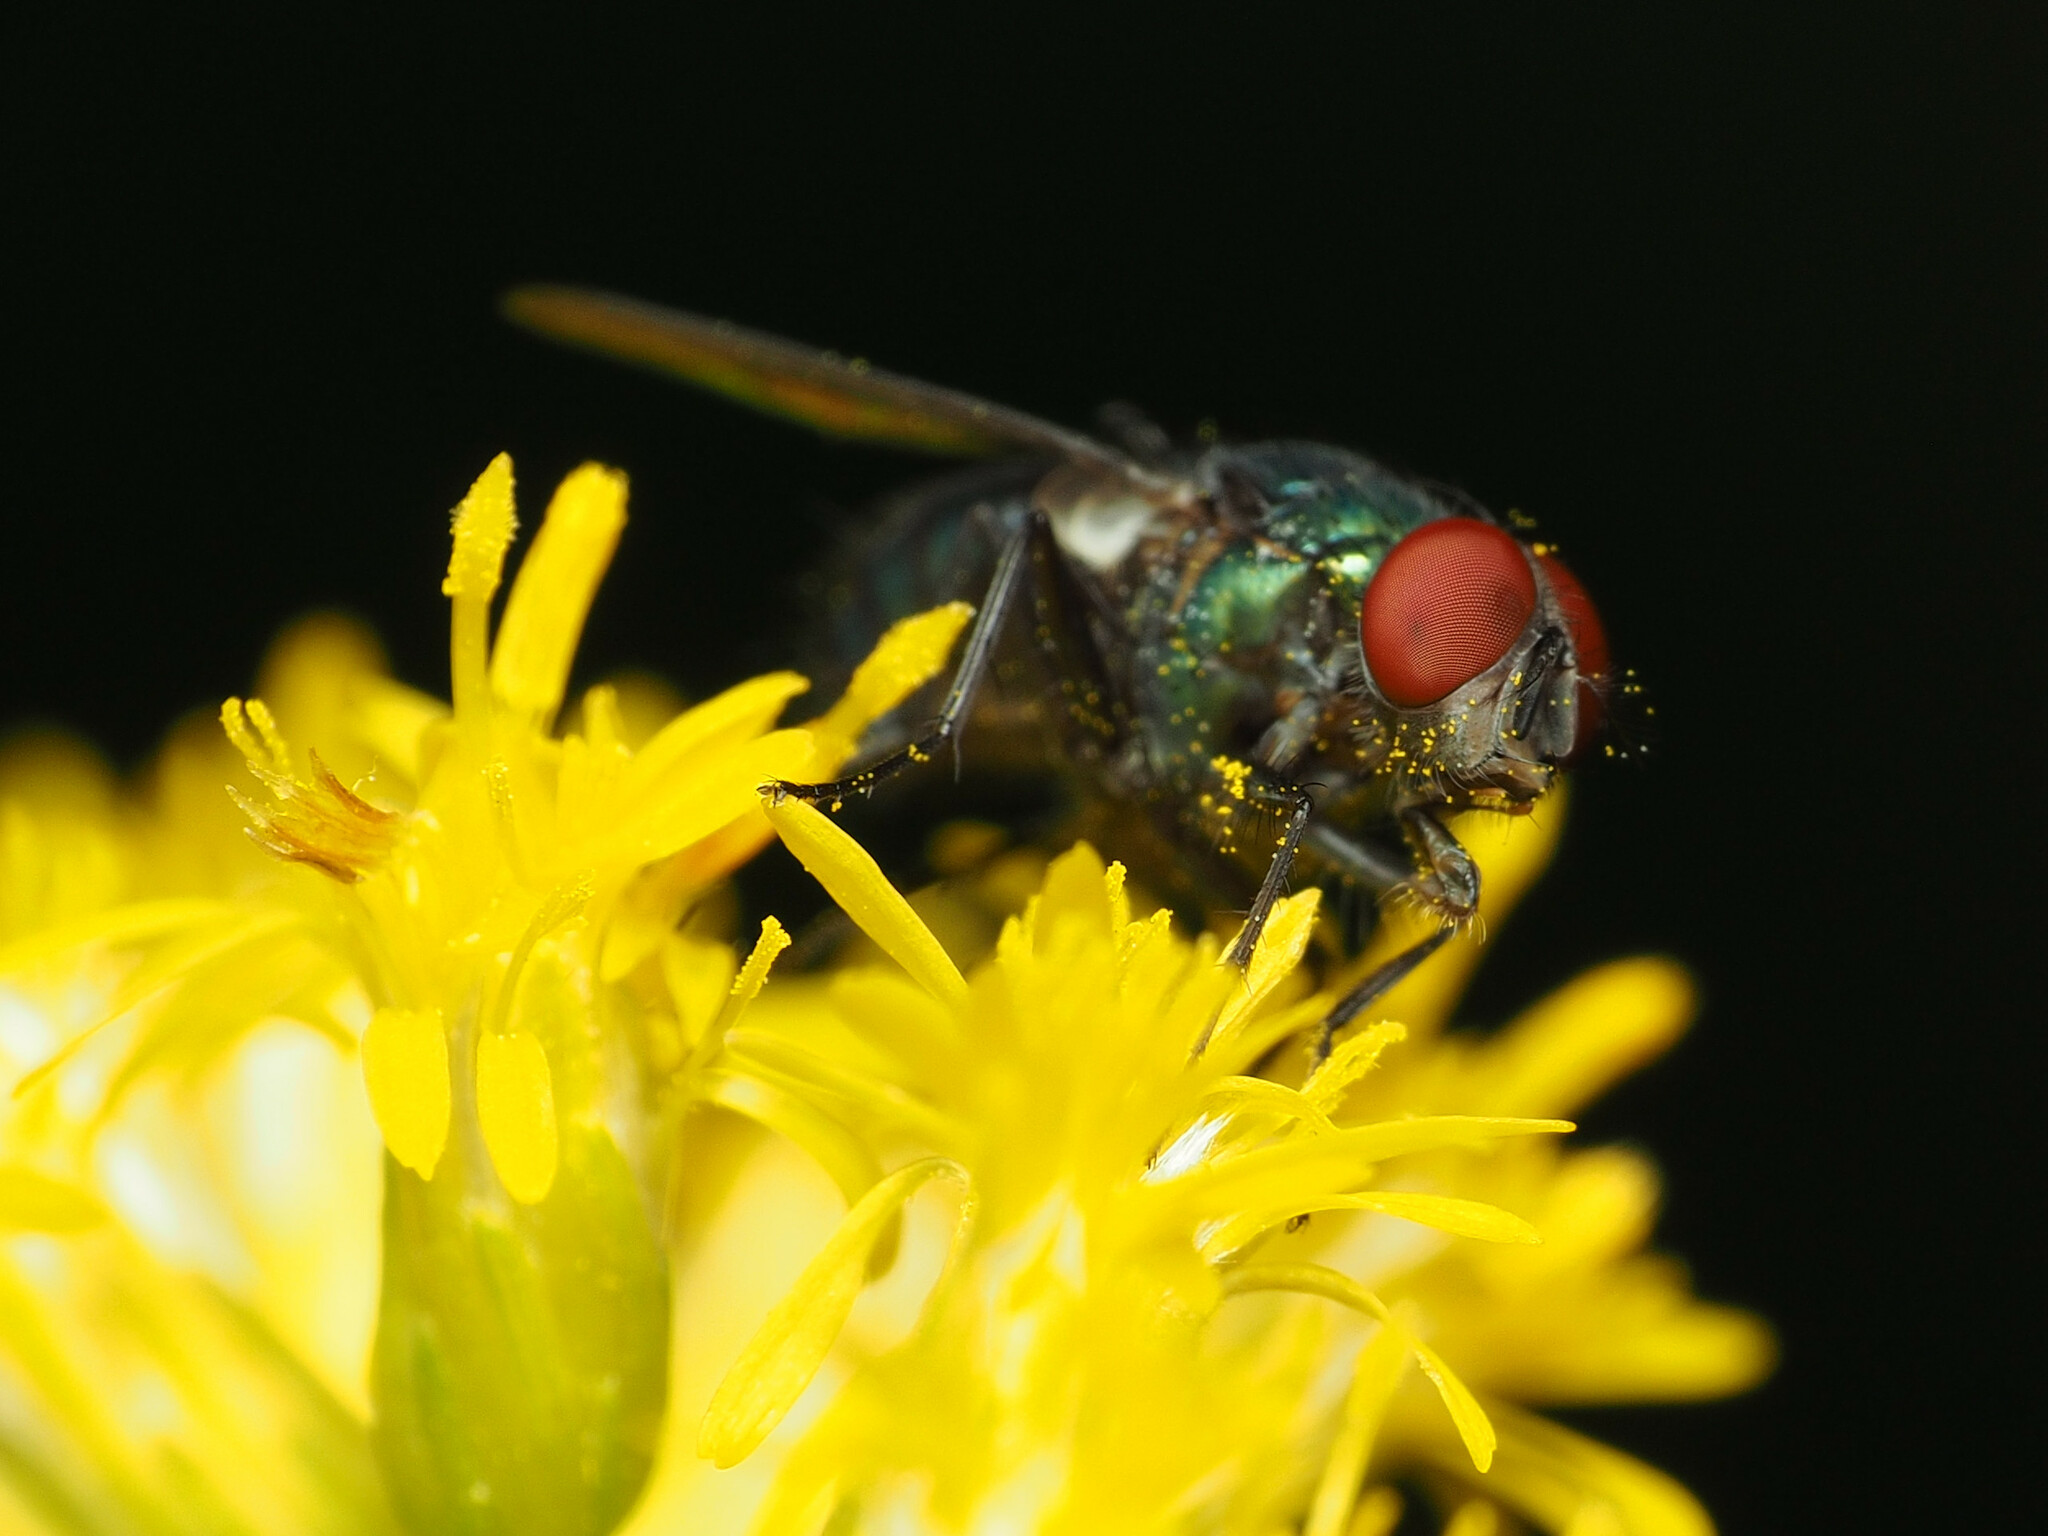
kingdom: Animalia
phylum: Arthropoda
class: Insecta
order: Diptera
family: Calliphoridae
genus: Lucilia
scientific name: Lucilia illustris
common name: Illustrious greenbottle
